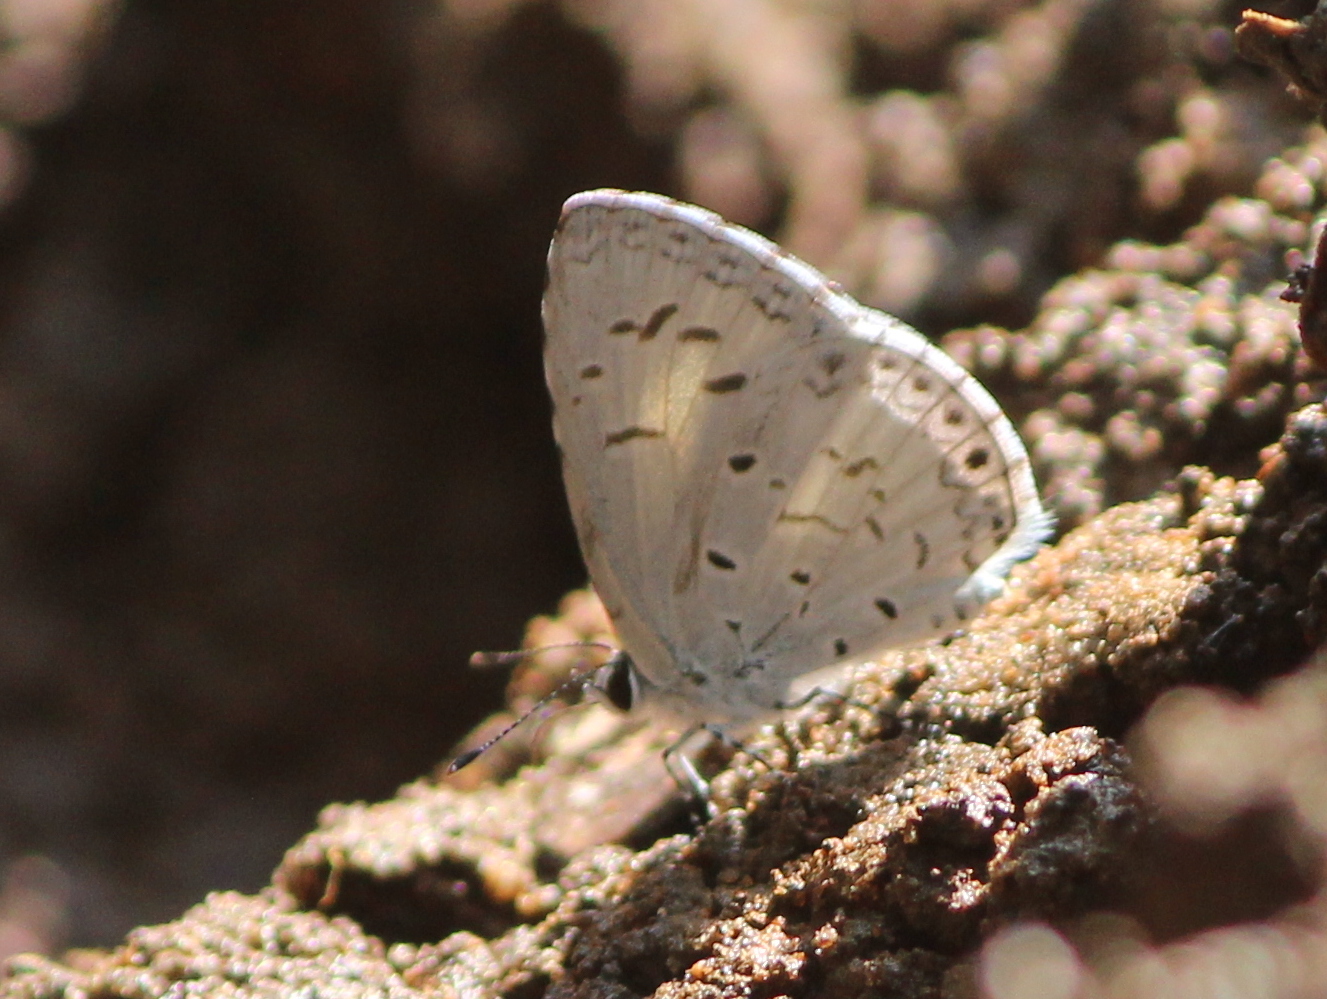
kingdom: Animalia
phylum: Arthropoda
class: Insecta
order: Lepidoptera
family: Lycaenidae
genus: Acytolepis
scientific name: Acytolepis puspa
